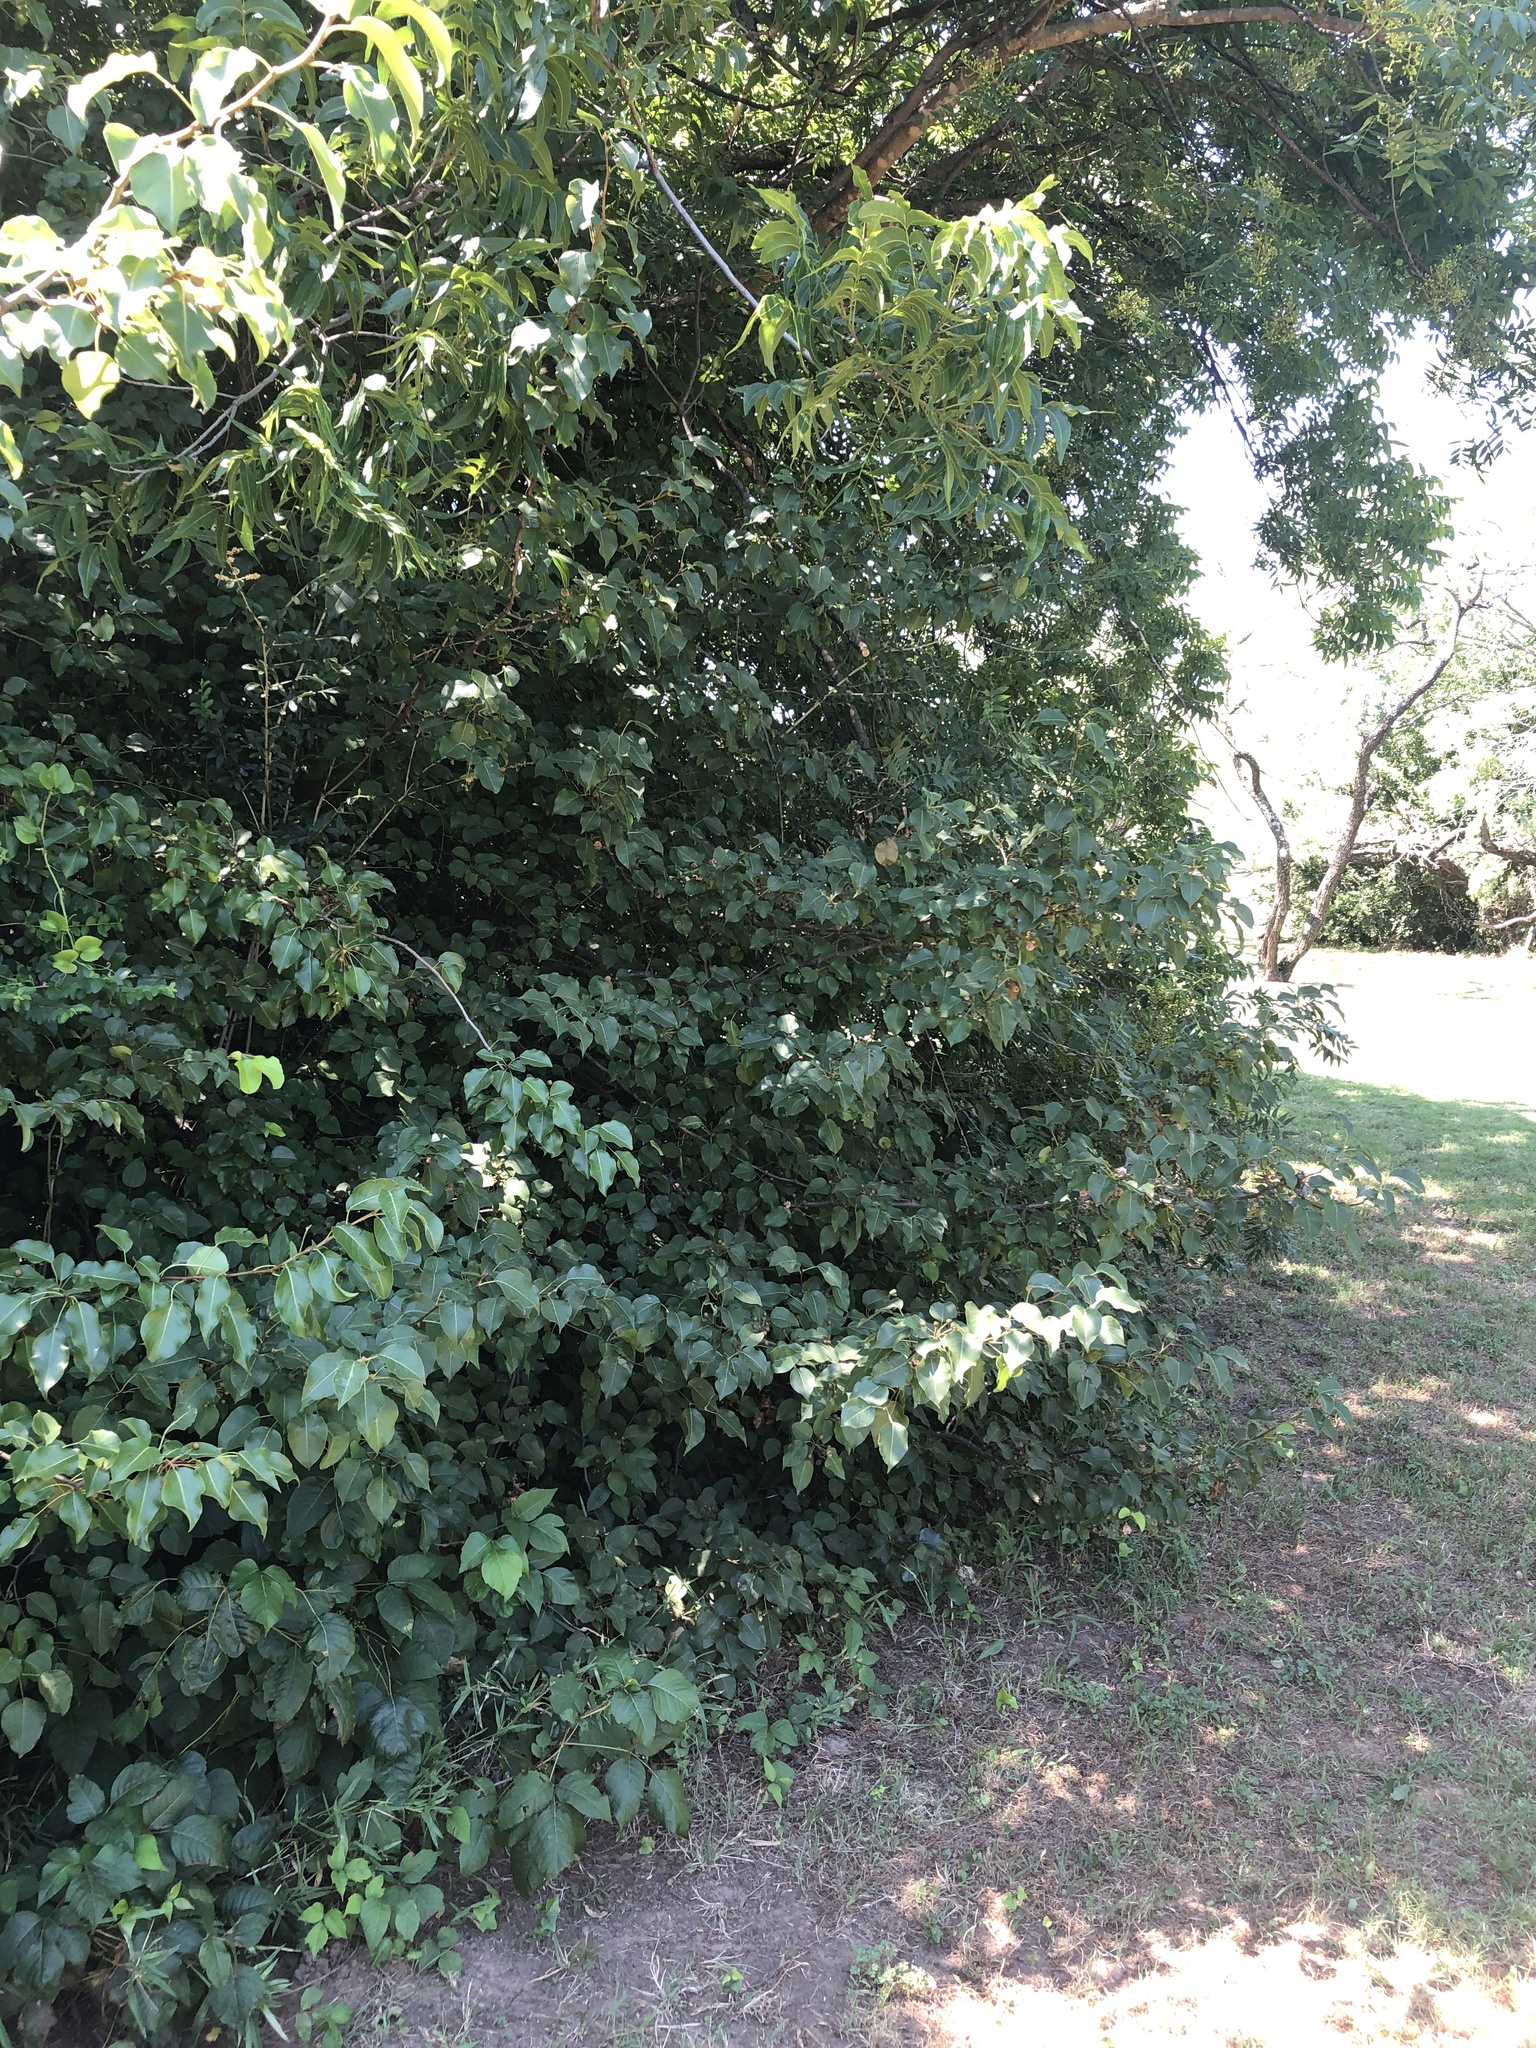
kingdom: Plantae
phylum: Tracheophyta
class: Magnoliopsida
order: Rosales
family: Rosaceae
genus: Pyrus
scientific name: Pyrus calleryana
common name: Callery pear
